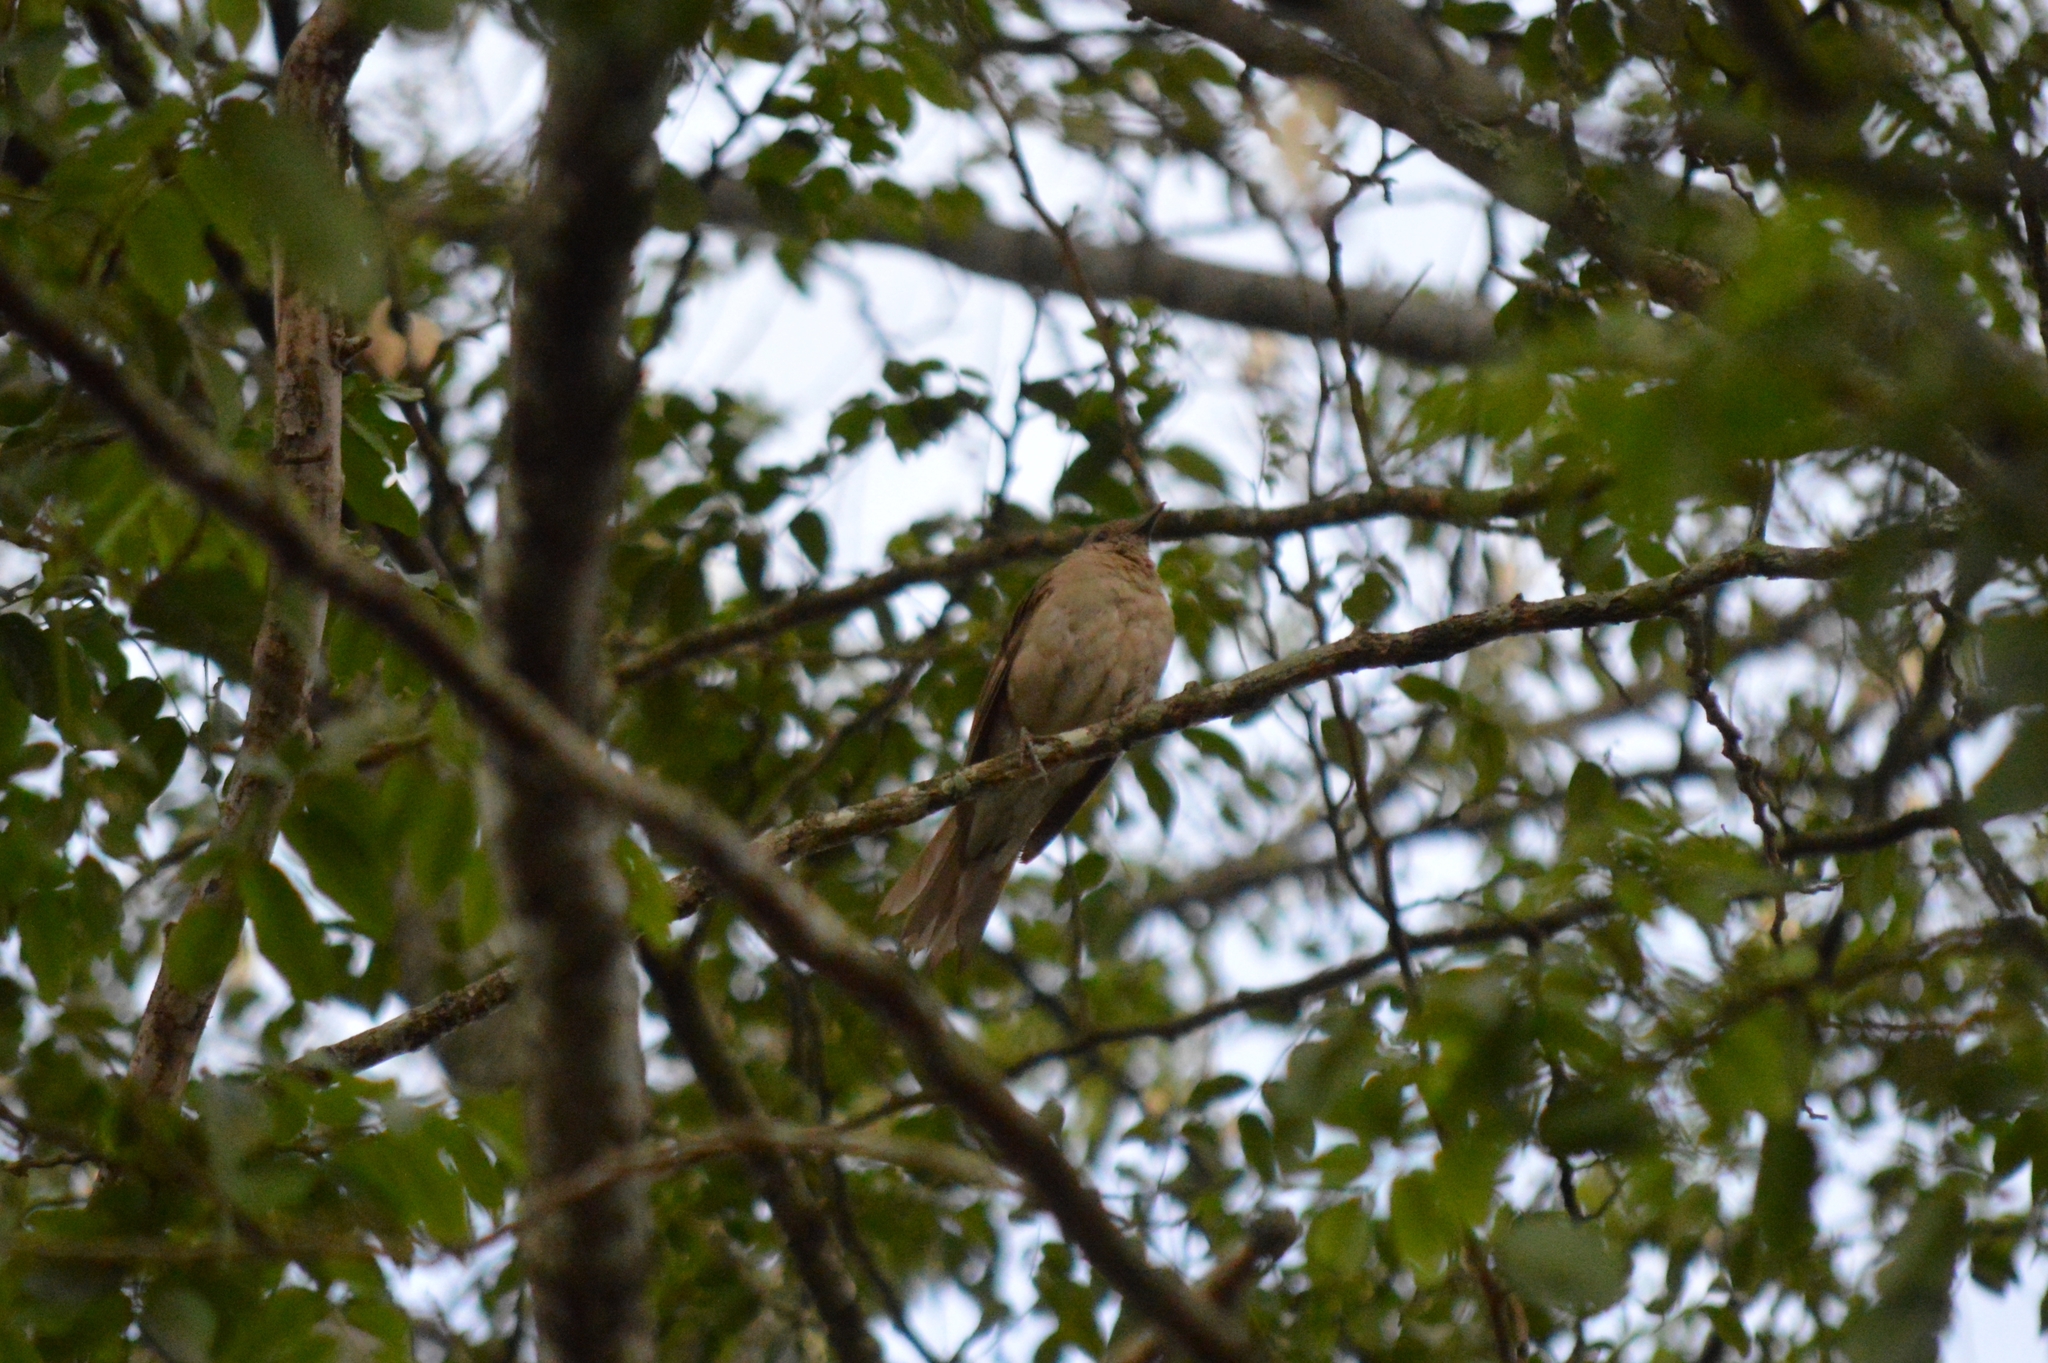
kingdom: Animalia
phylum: Chordata
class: Aves
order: Passeriformes
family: Turdidae
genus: Turdus
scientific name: Turdus leucomelas
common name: Pale-breasted thrush
